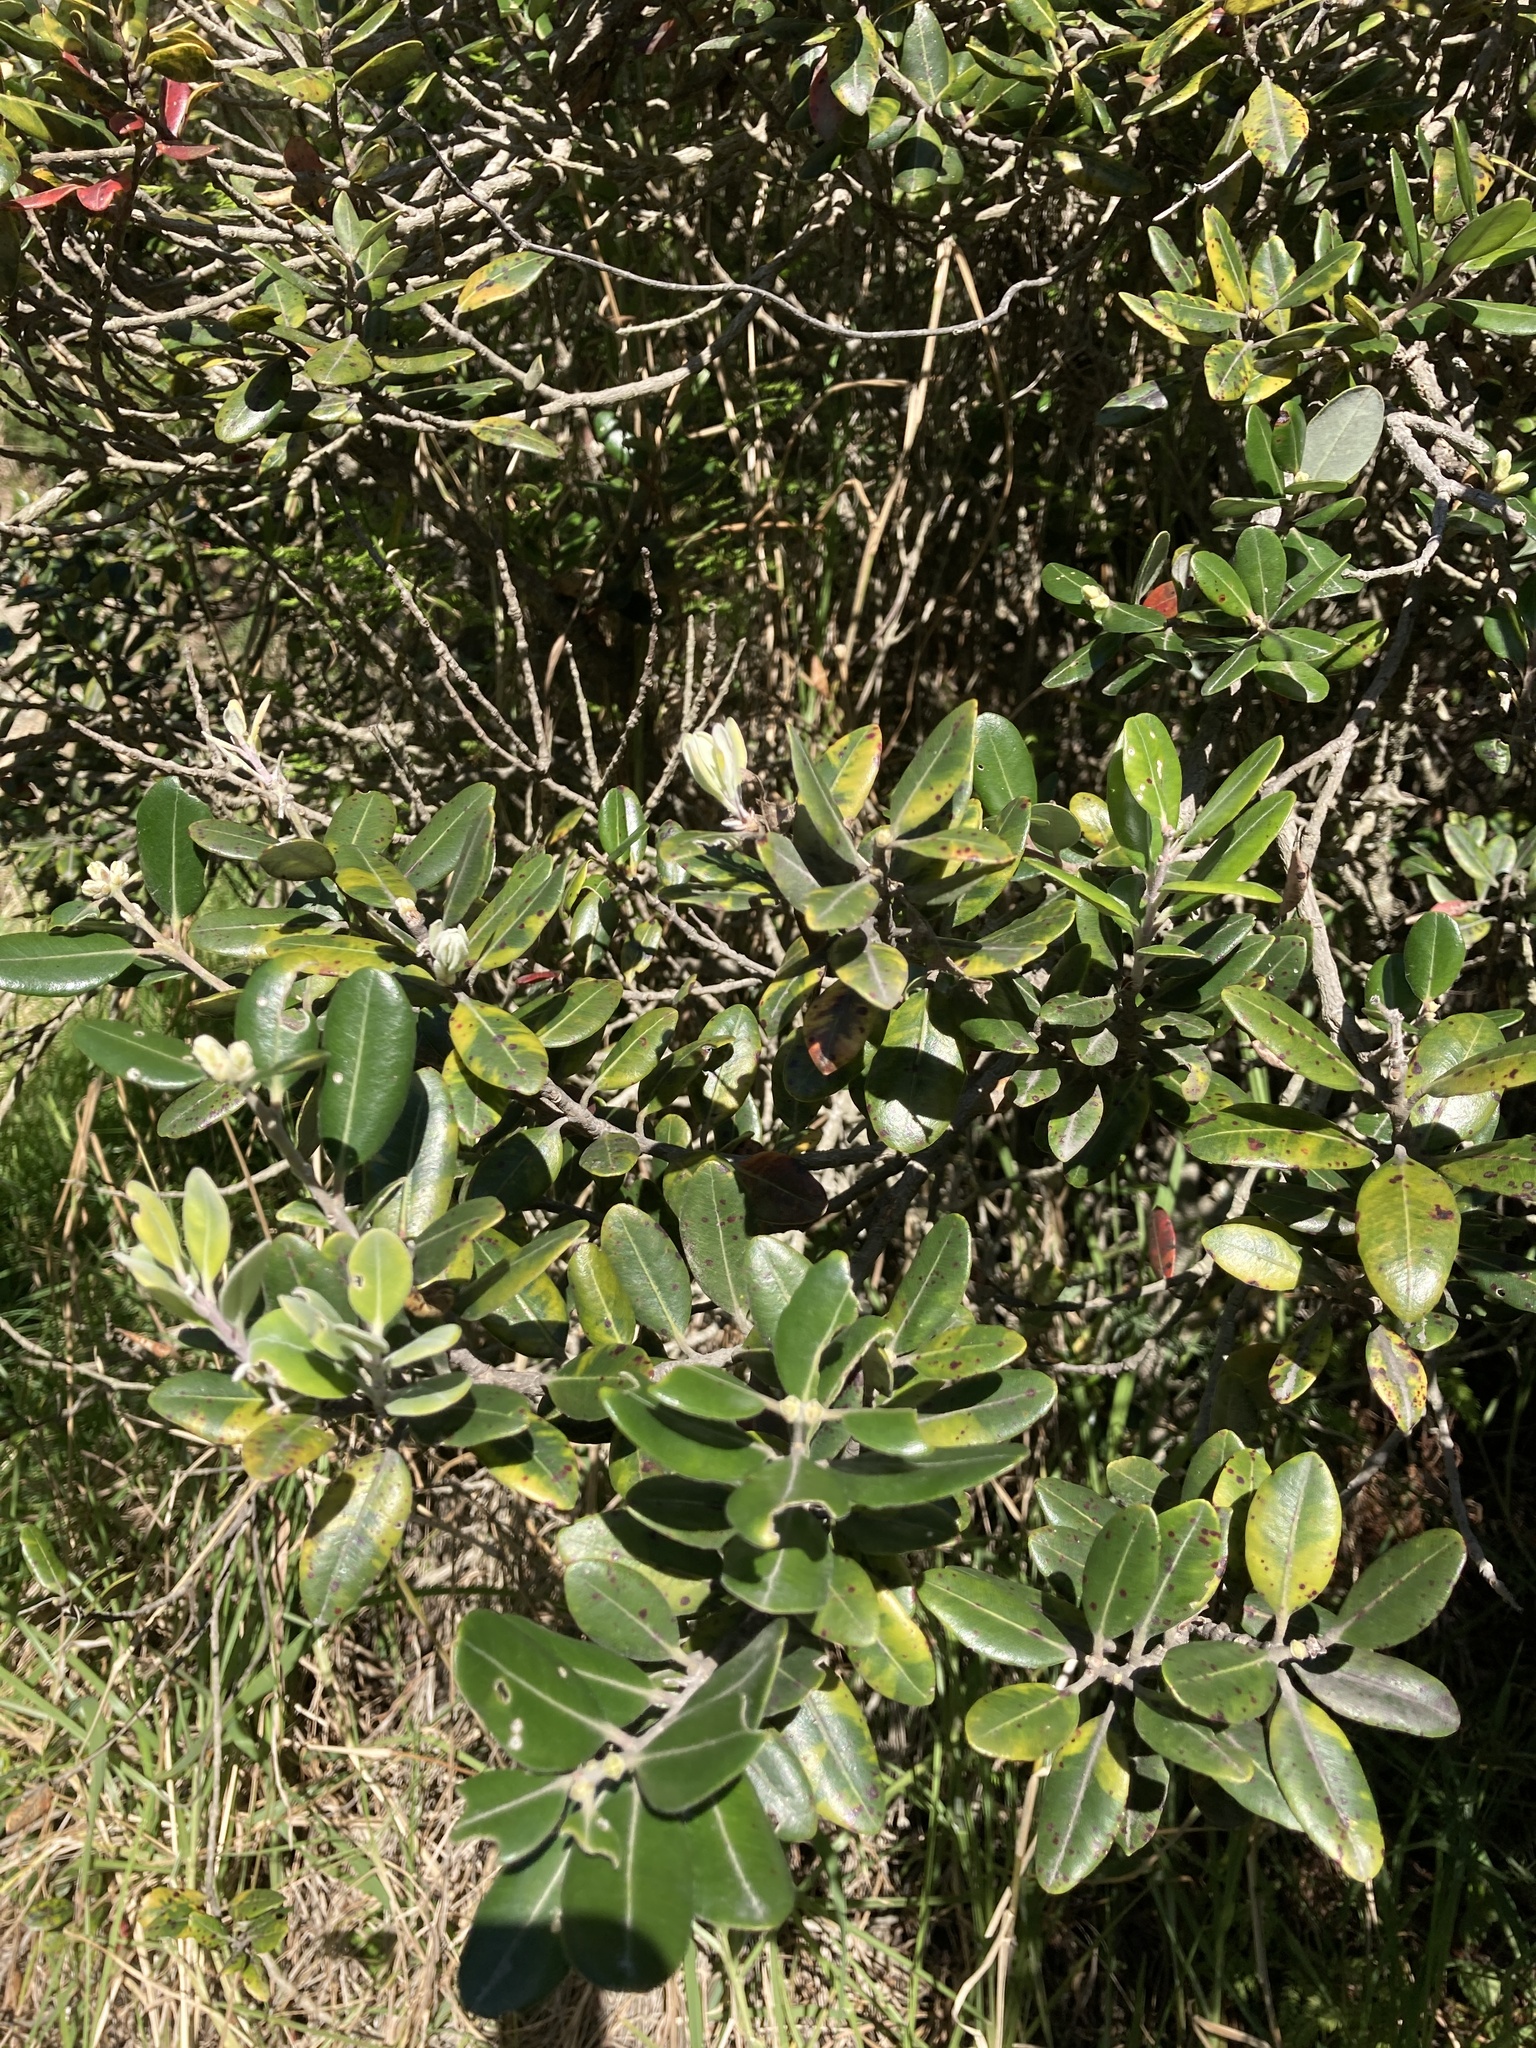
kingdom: Plantae
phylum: Tracheophyta
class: Magnoliopsida
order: Myrtales
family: Myrtaceae
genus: Metrosideros
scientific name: Metrosideros excelsa
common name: New zealand christmastree
